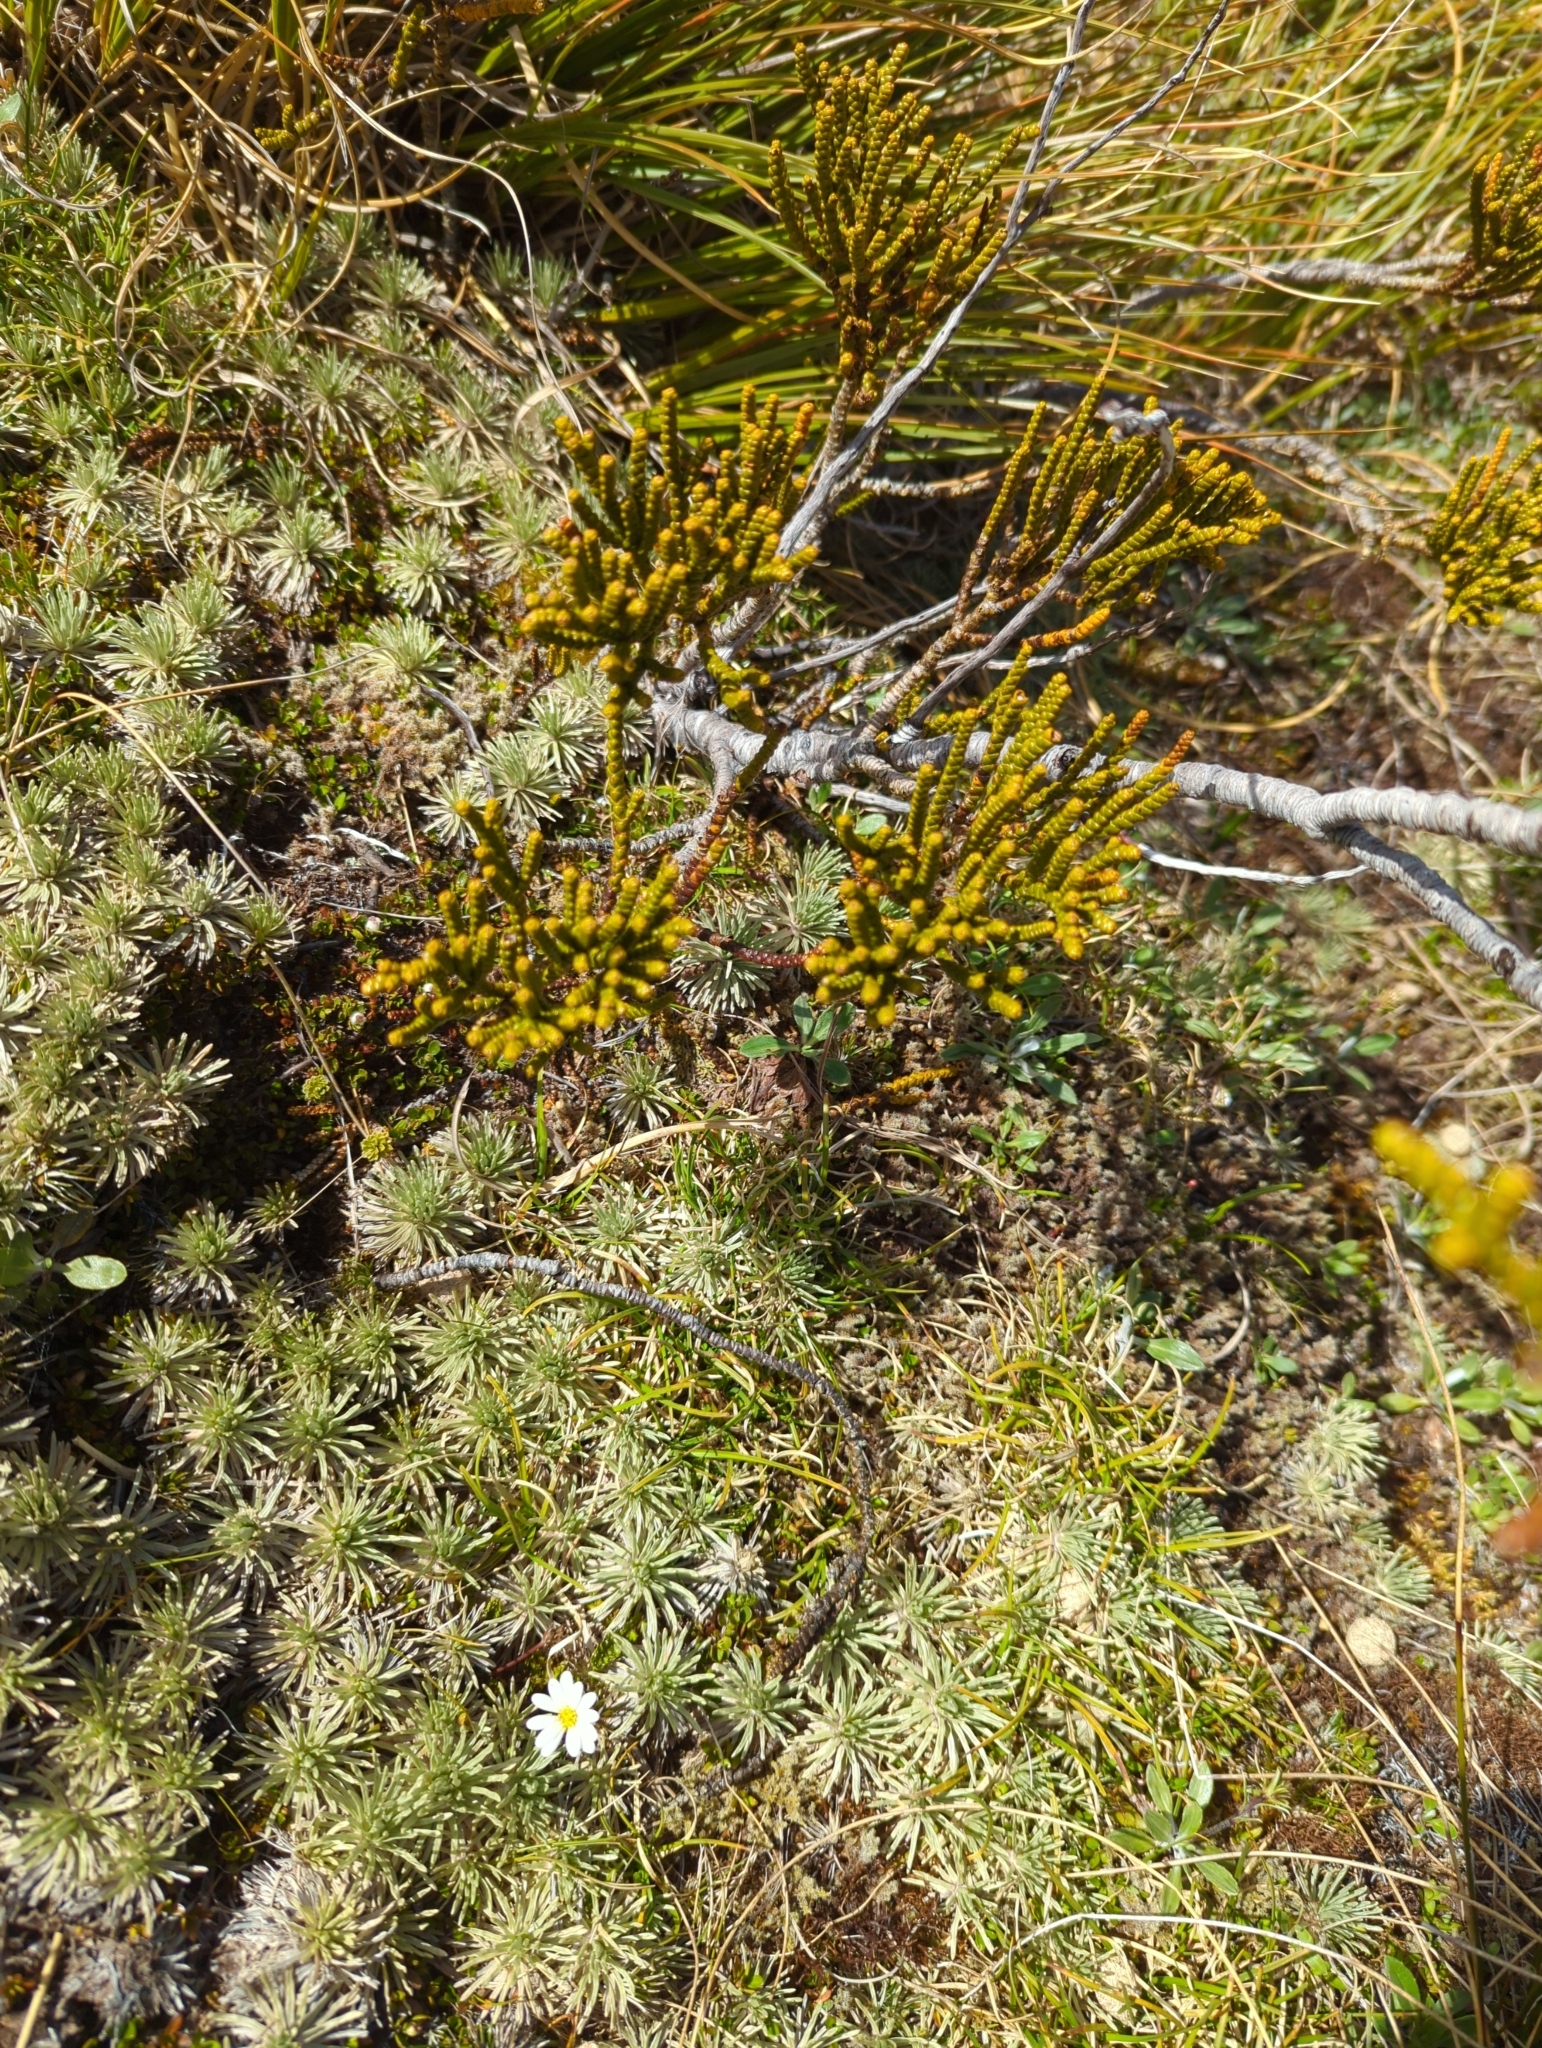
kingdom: Plantae
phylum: Tracheophyta
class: Magnoliopsida
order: Lamiales
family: Plantaginaceae
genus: Veronica
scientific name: Veronica hectorii
